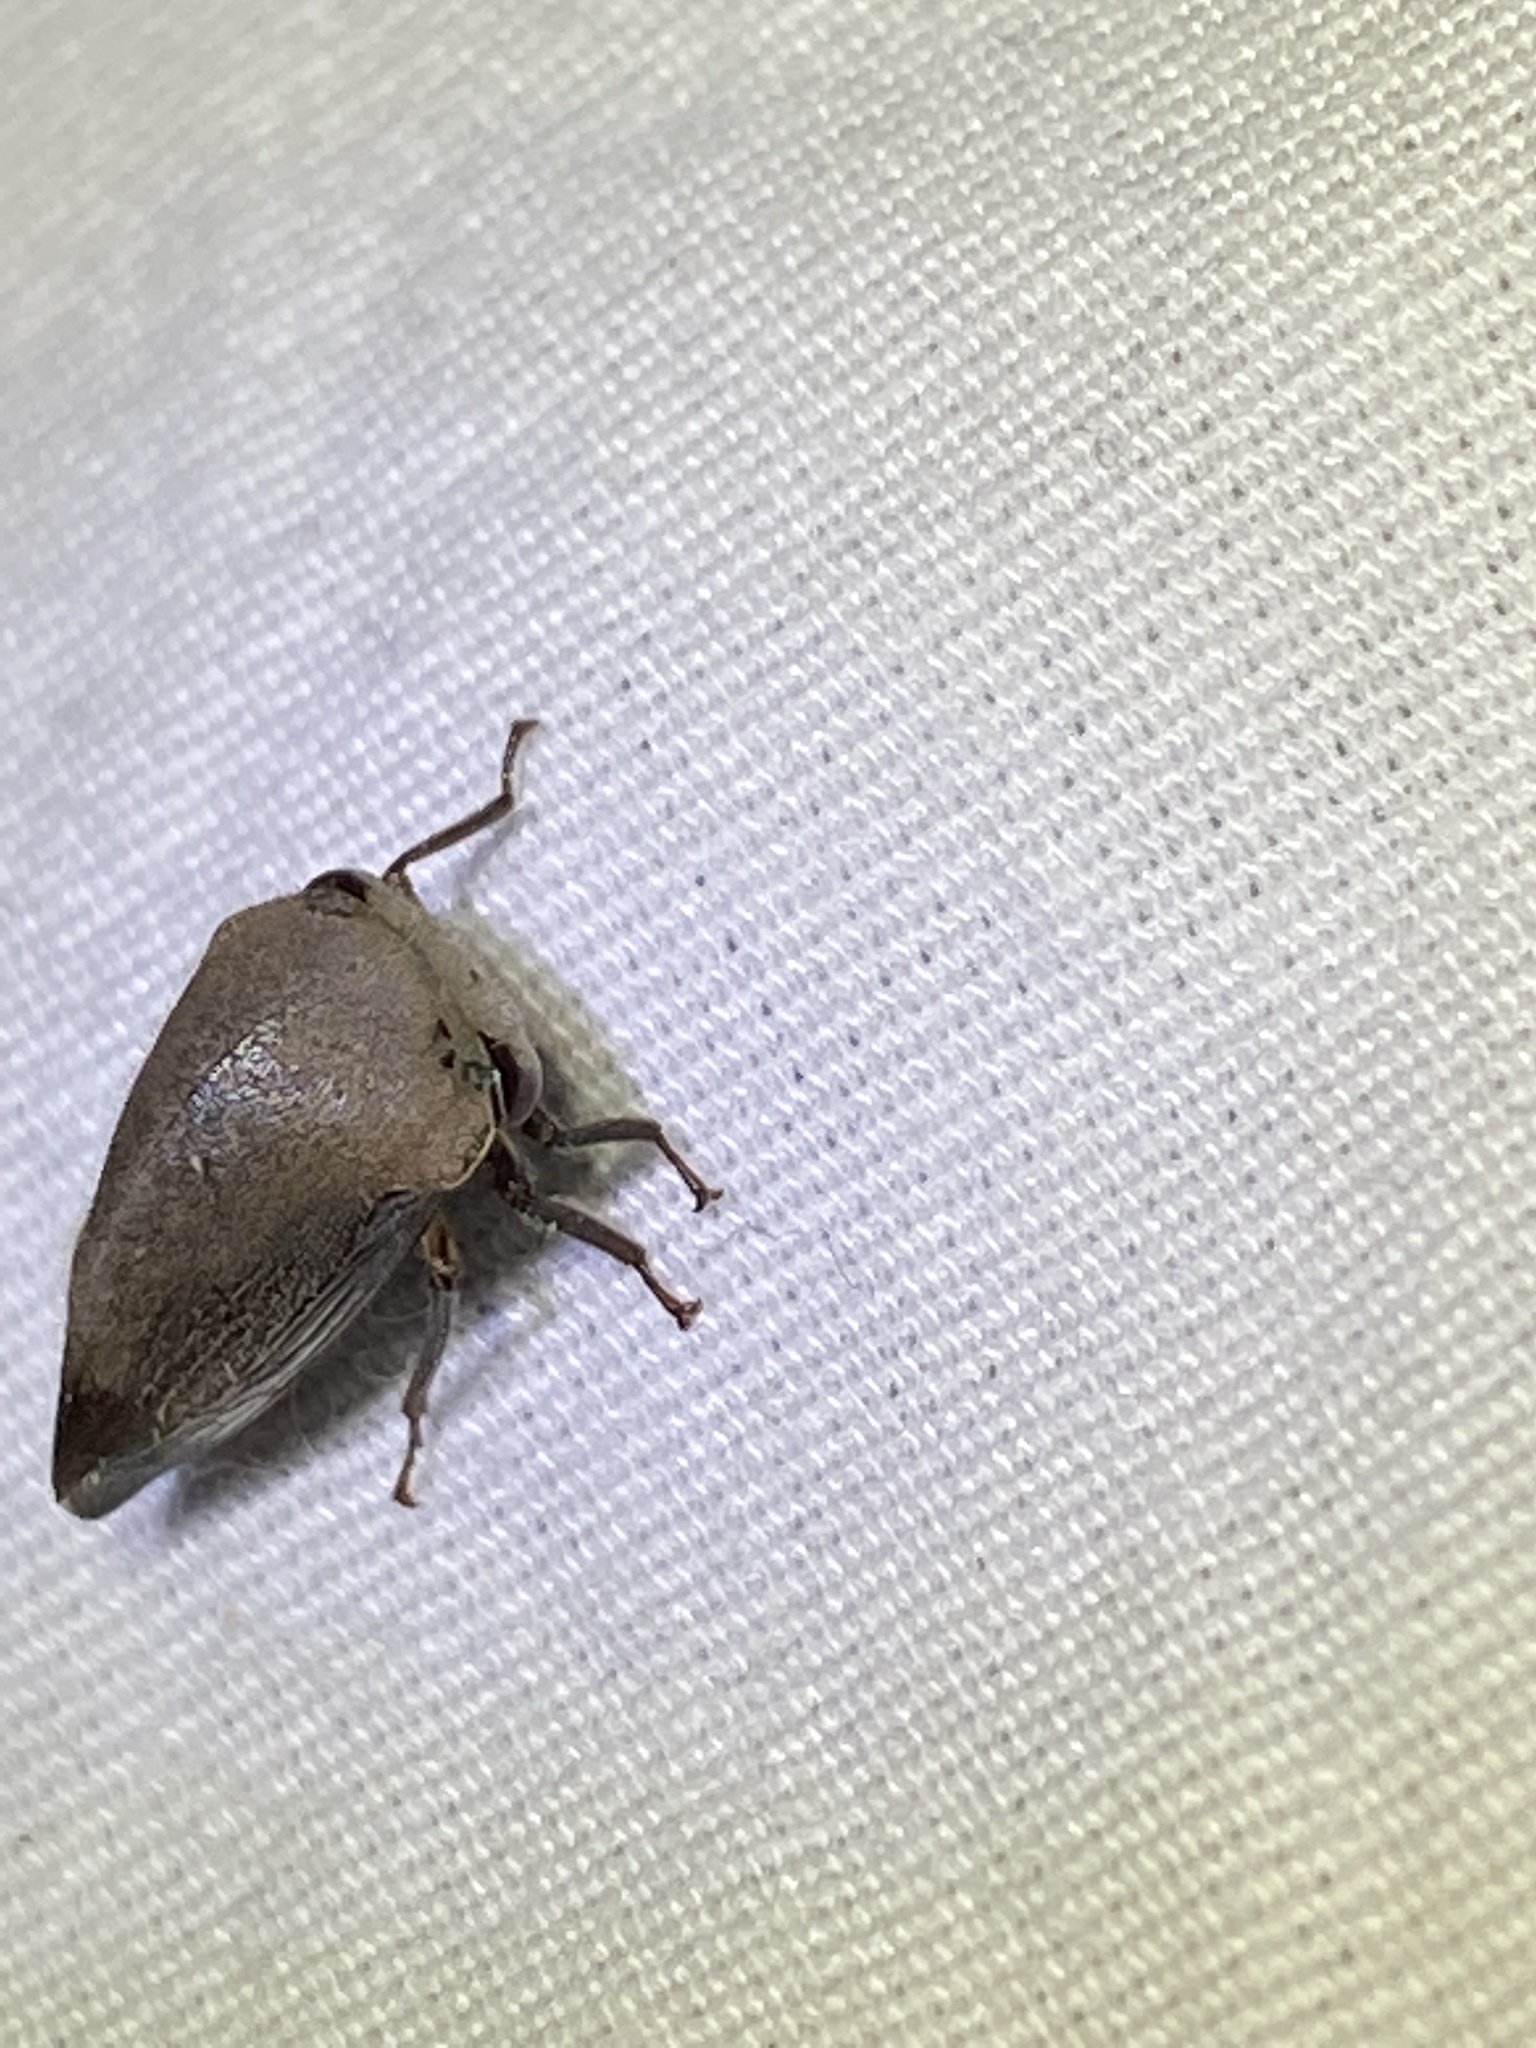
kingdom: Animalia
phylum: Arthropoda
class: Insecta
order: Hemiptera
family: Membracidae
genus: Carynota
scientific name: Carynota mera
